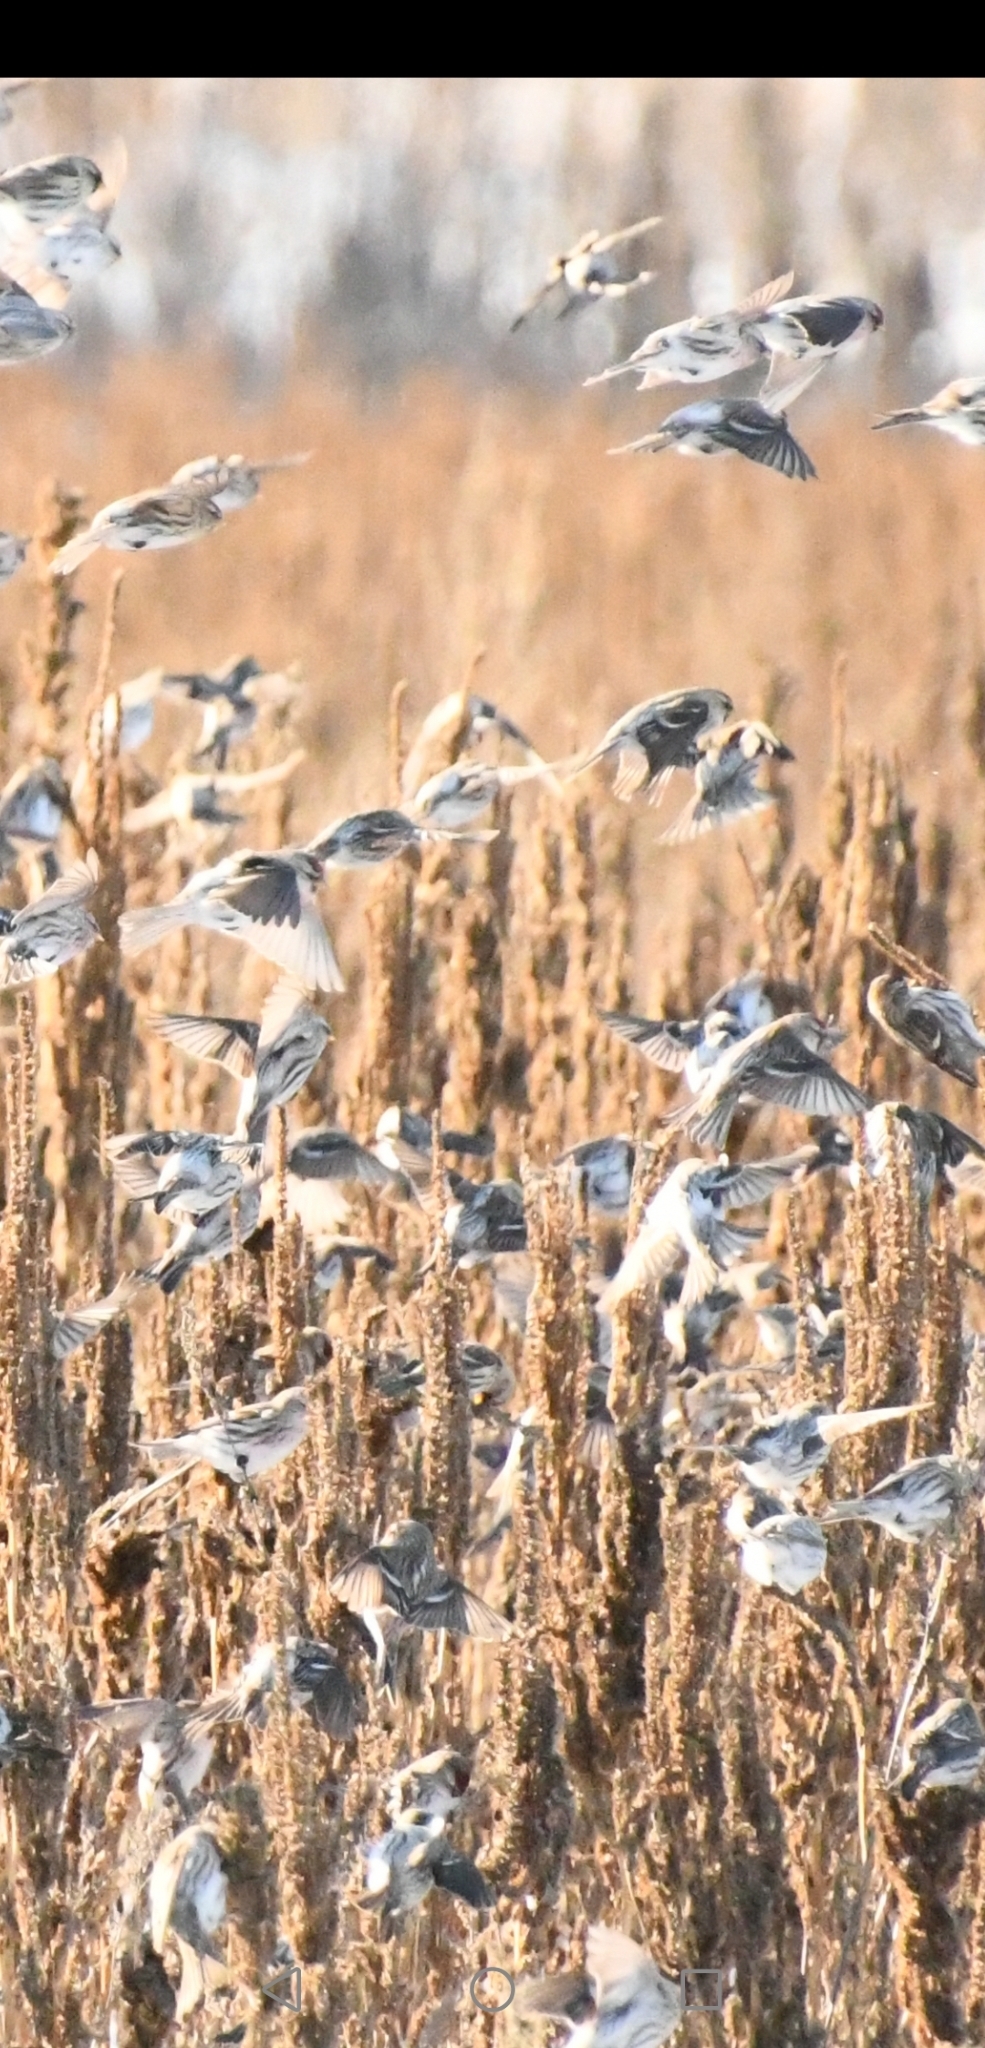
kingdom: Animalia
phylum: Chordata
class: Aves
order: Passeriformes
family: Fringillidae
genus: Acanthis
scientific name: Acanthis flammea
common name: Common redpoll
